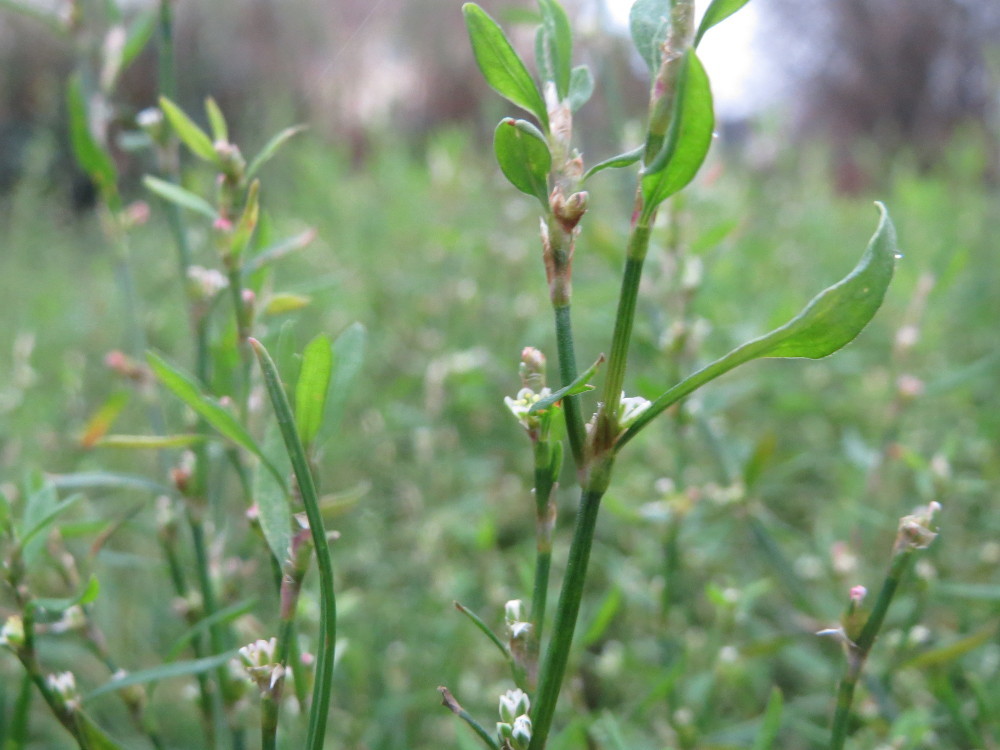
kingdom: Plantae
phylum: Tracheophyta
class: Magnoliopsida
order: Caryophyllales
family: Polygonaceae
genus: Polygonum
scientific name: Polygonum aviculare
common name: Prostrate knotweed
